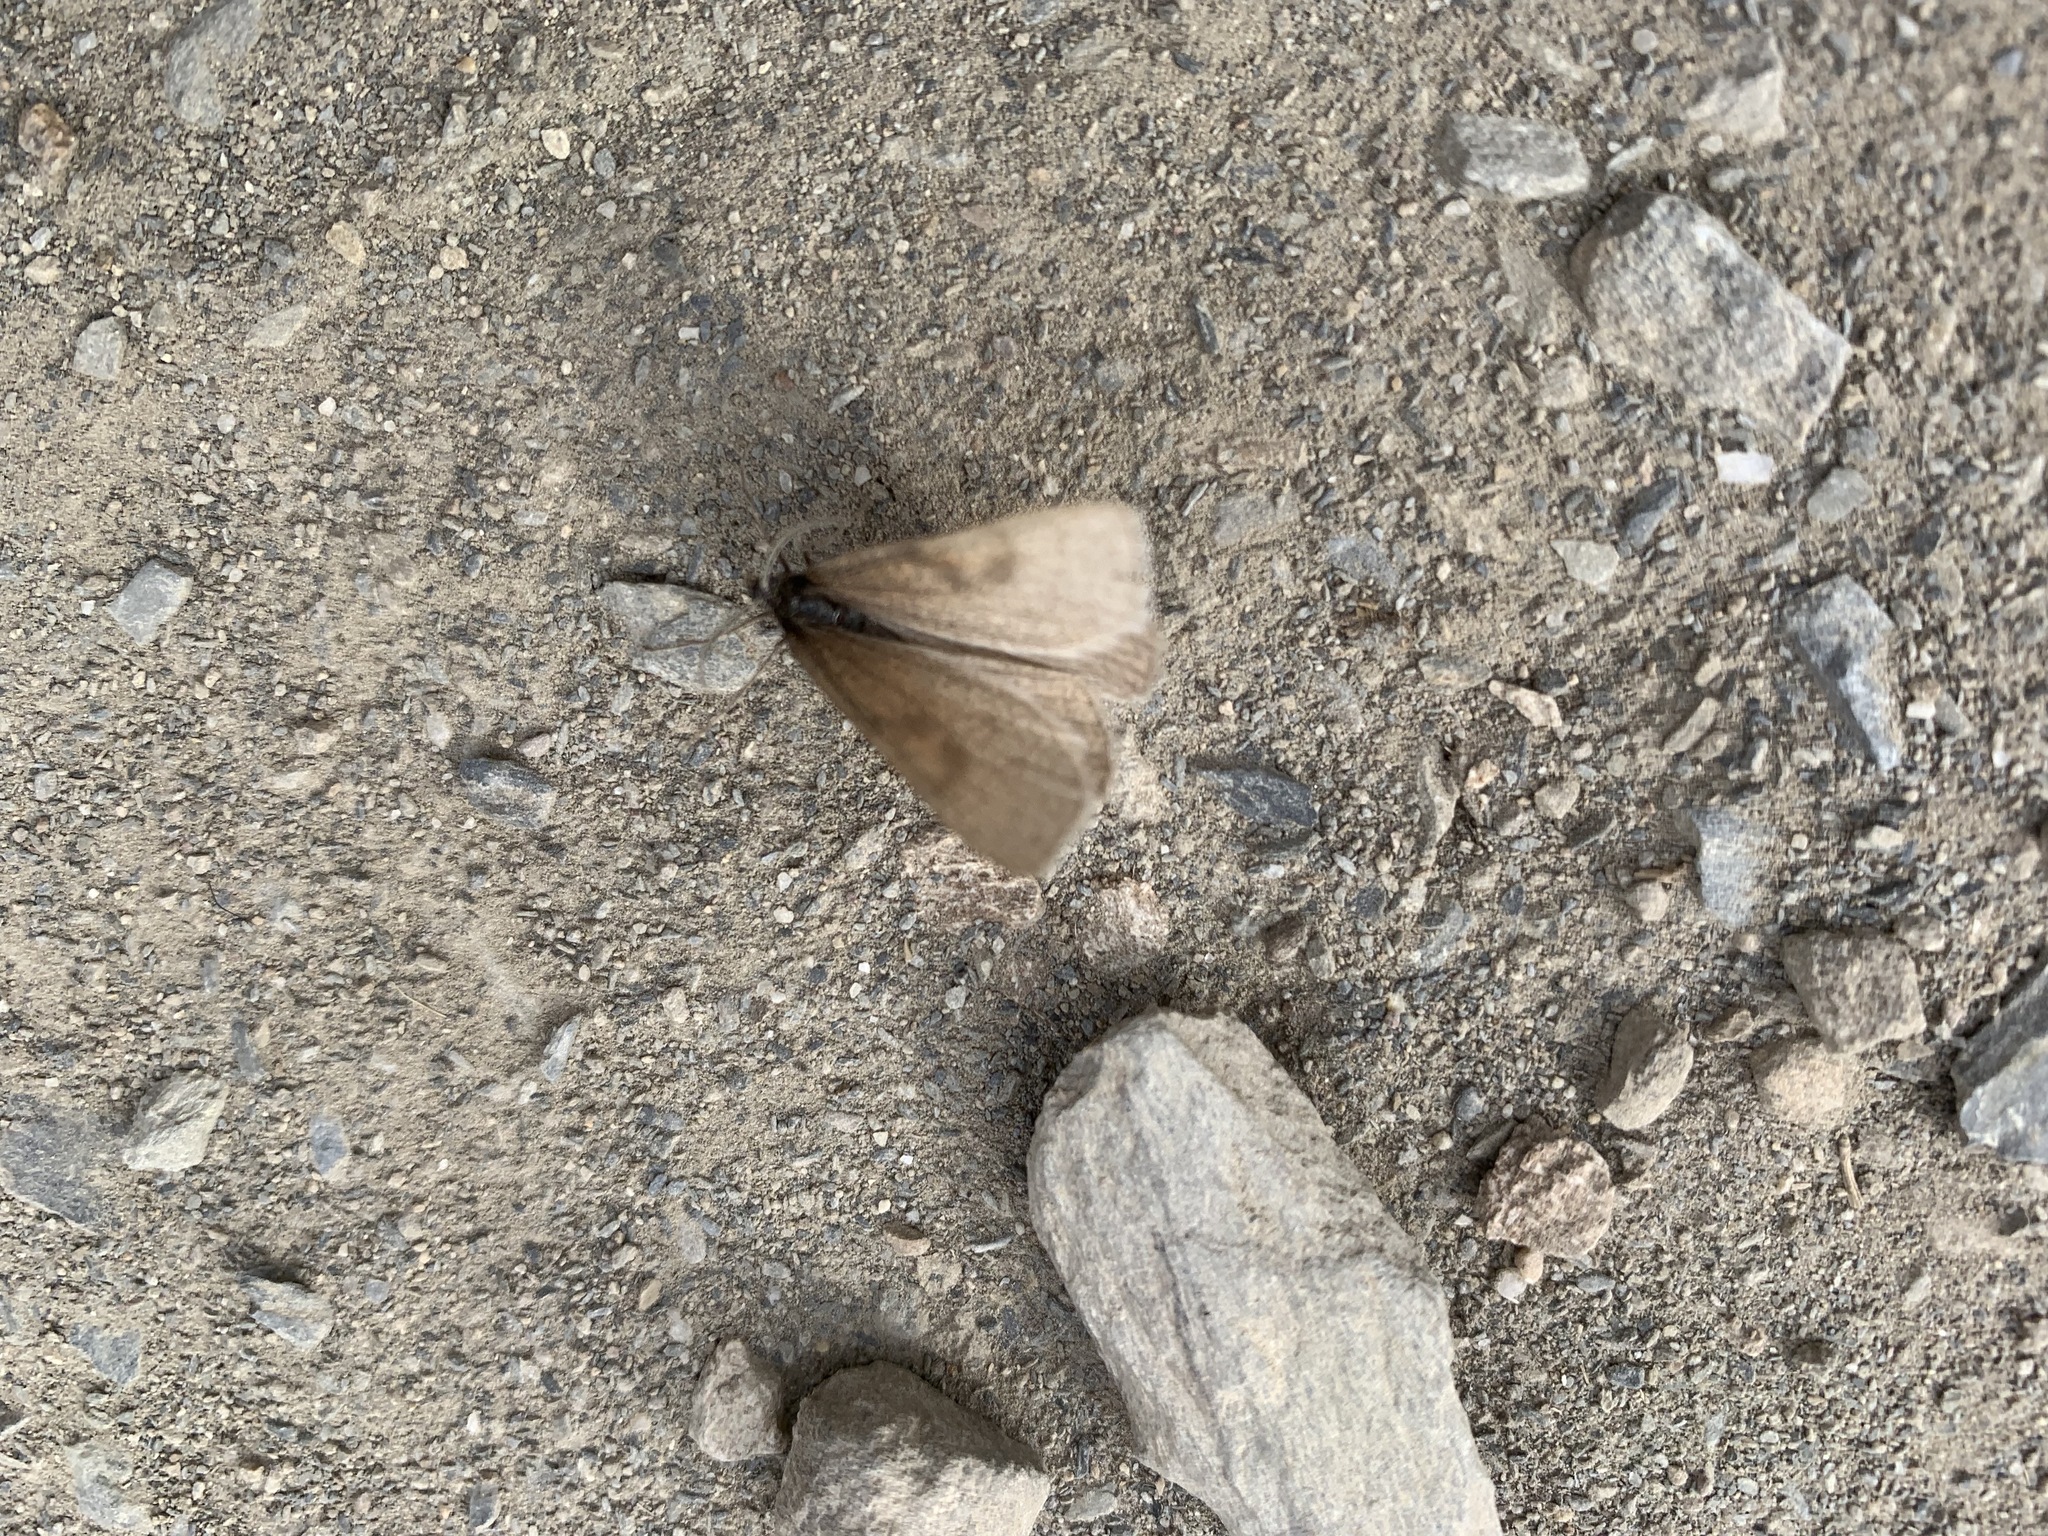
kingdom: Animalia
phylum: Arthropoda
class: Insecta
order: Lepidoptera
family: Geometridae
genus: Lignyoptera
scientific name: Lignyoptera fumidaria
